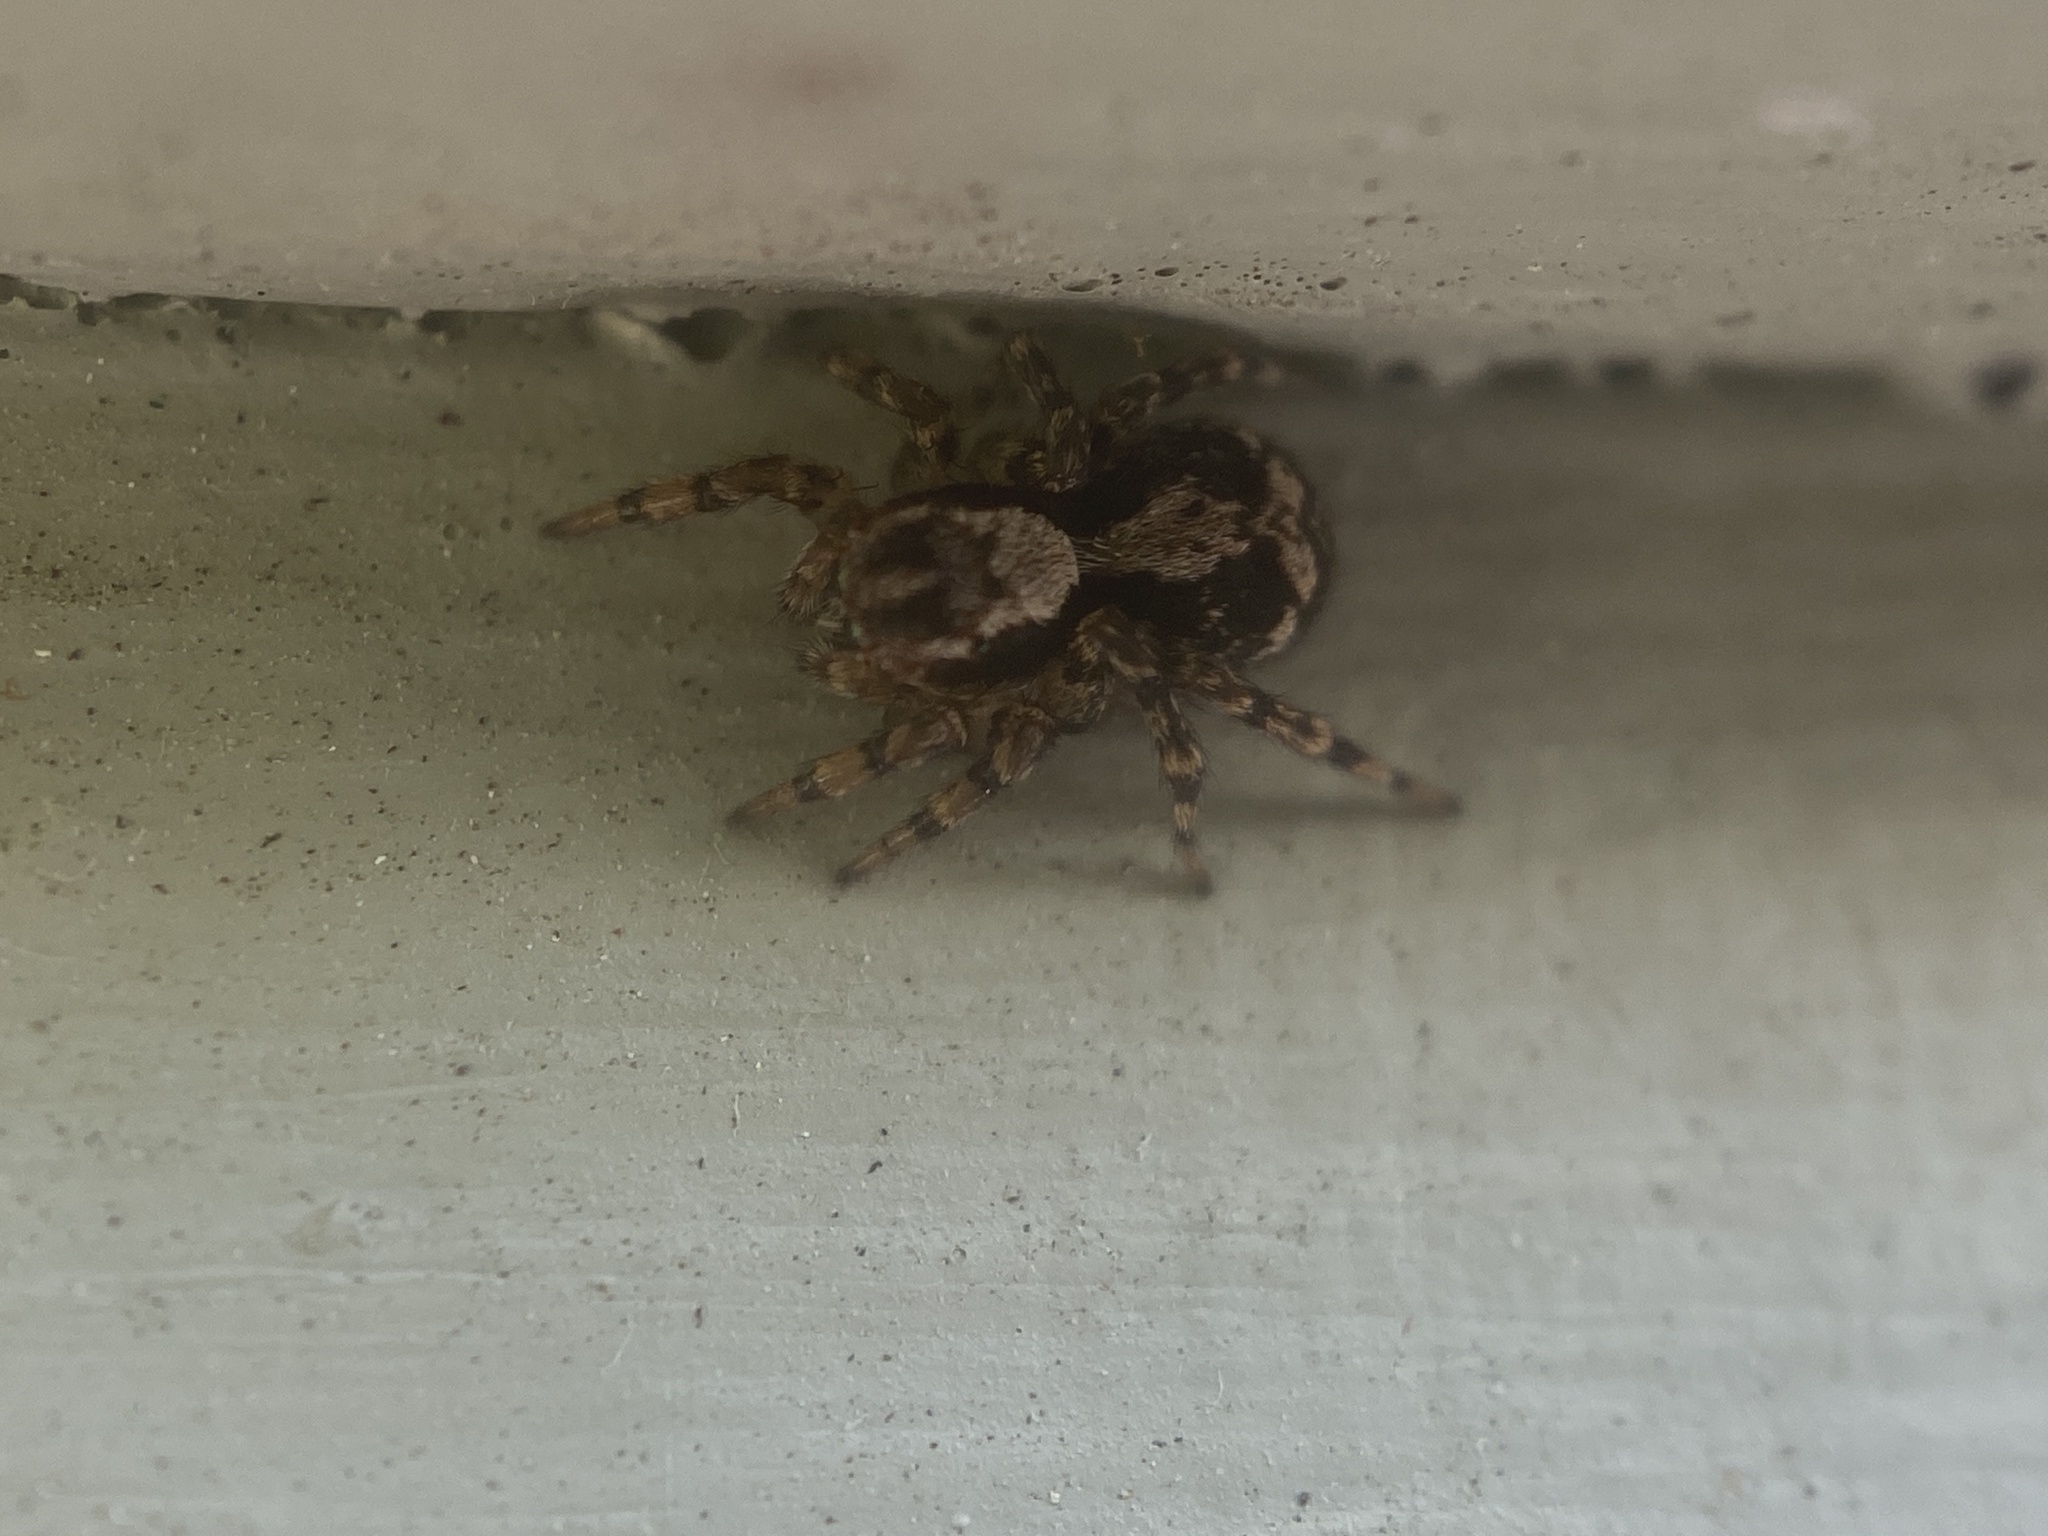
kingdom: Animalia
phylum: Arthropoda
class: Arachnida
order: Araneae
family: Salticidae
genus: Naphrys
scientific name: Naphrys pulex
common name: Flea jumping spider
